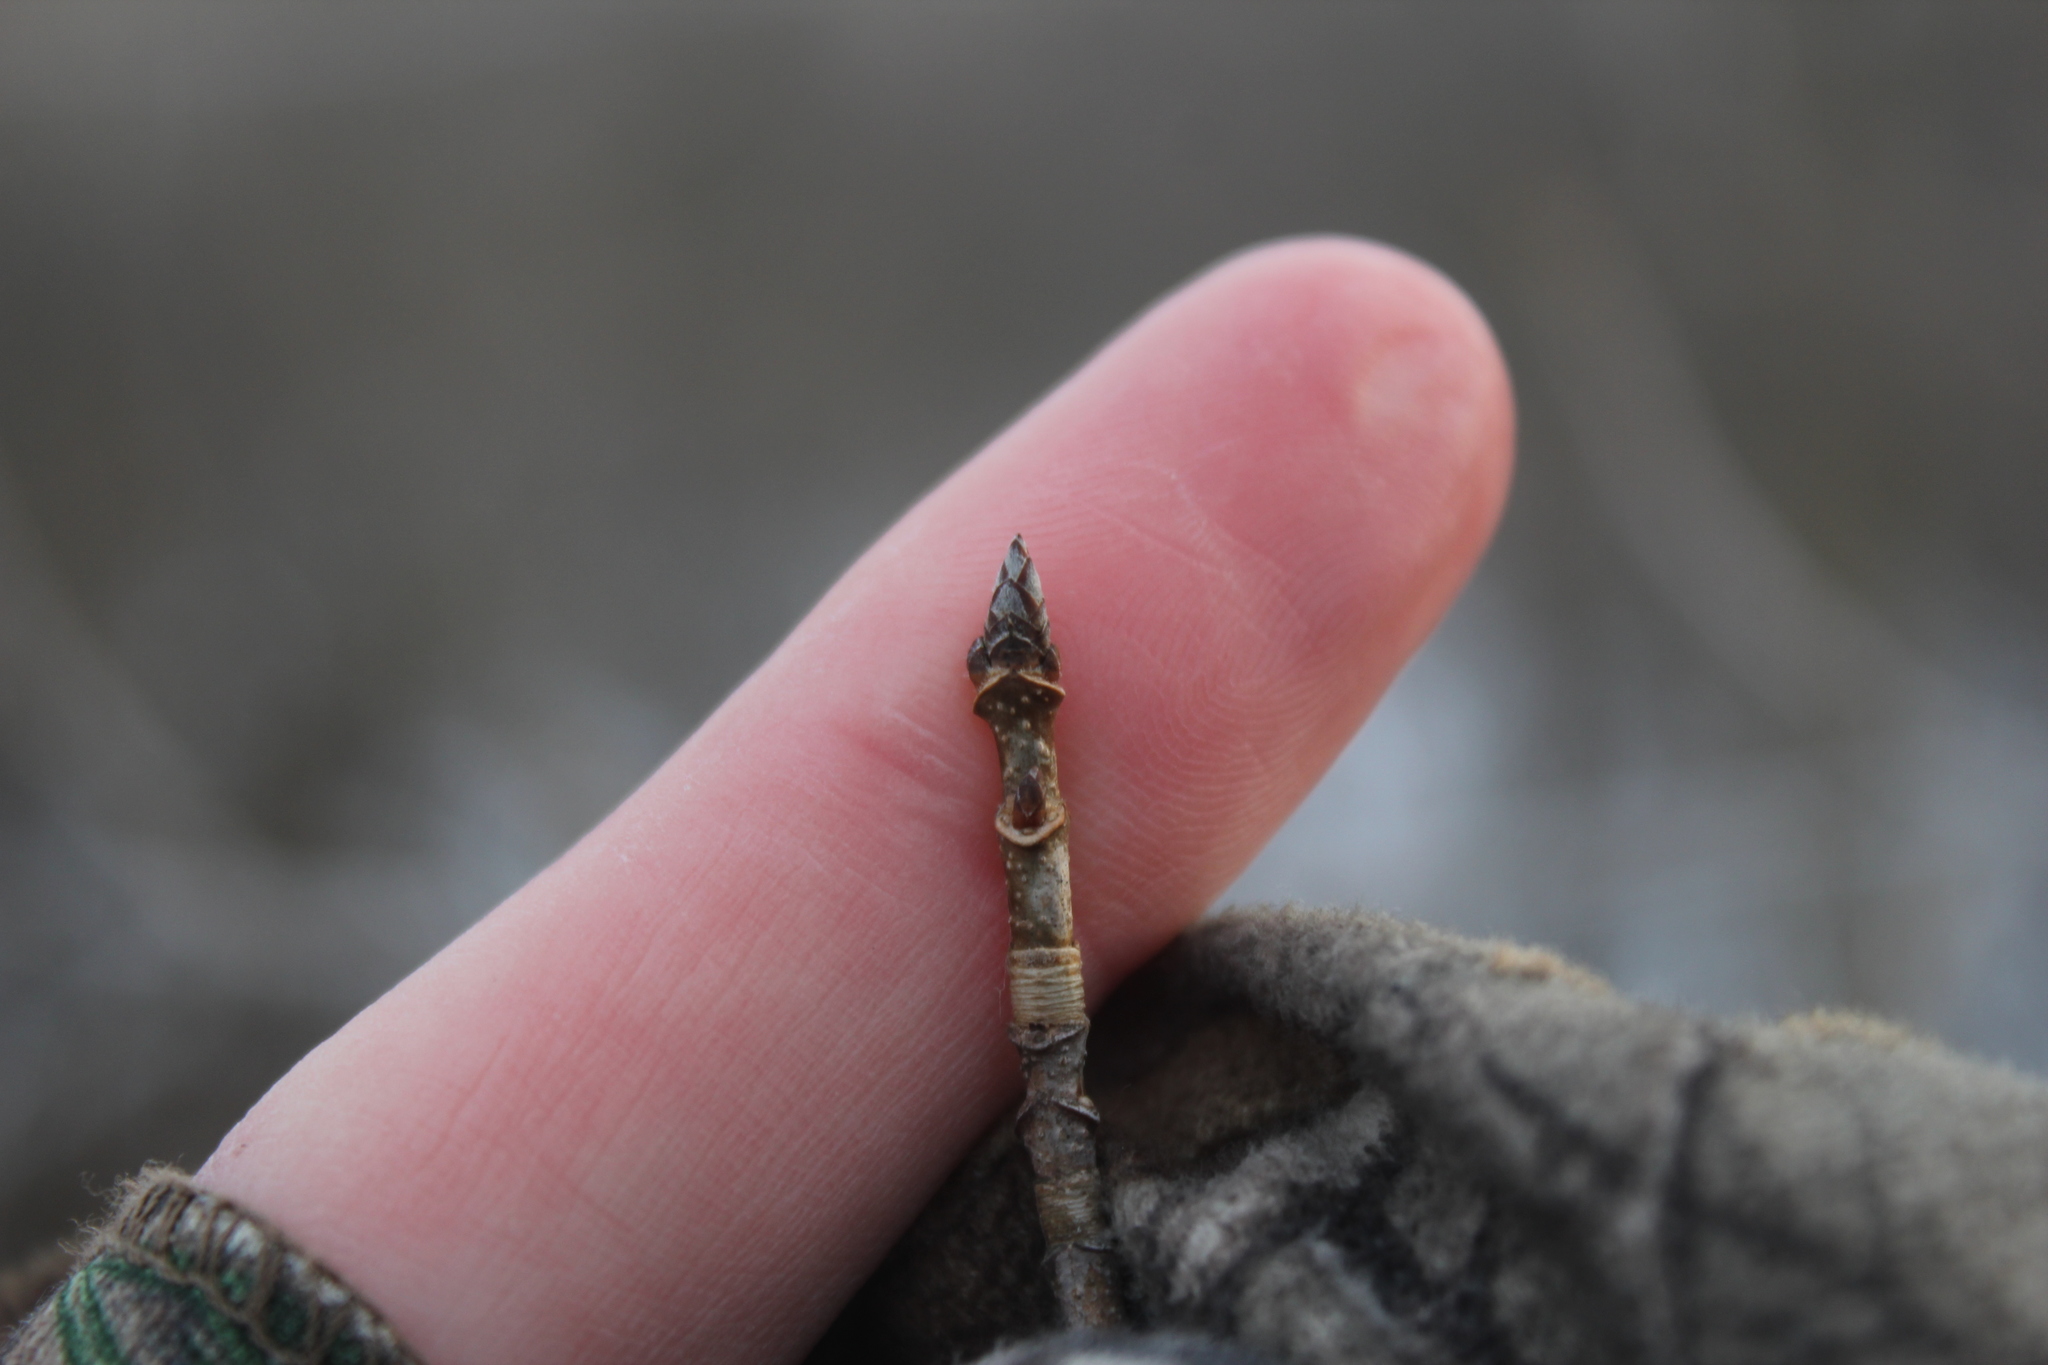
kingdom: Plantae
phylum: Tracheophyta
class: Magnoliopsida
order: Sapindales
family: Sapindaceae
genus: Acer
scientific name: Acer saccharum
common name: Sugar maple
